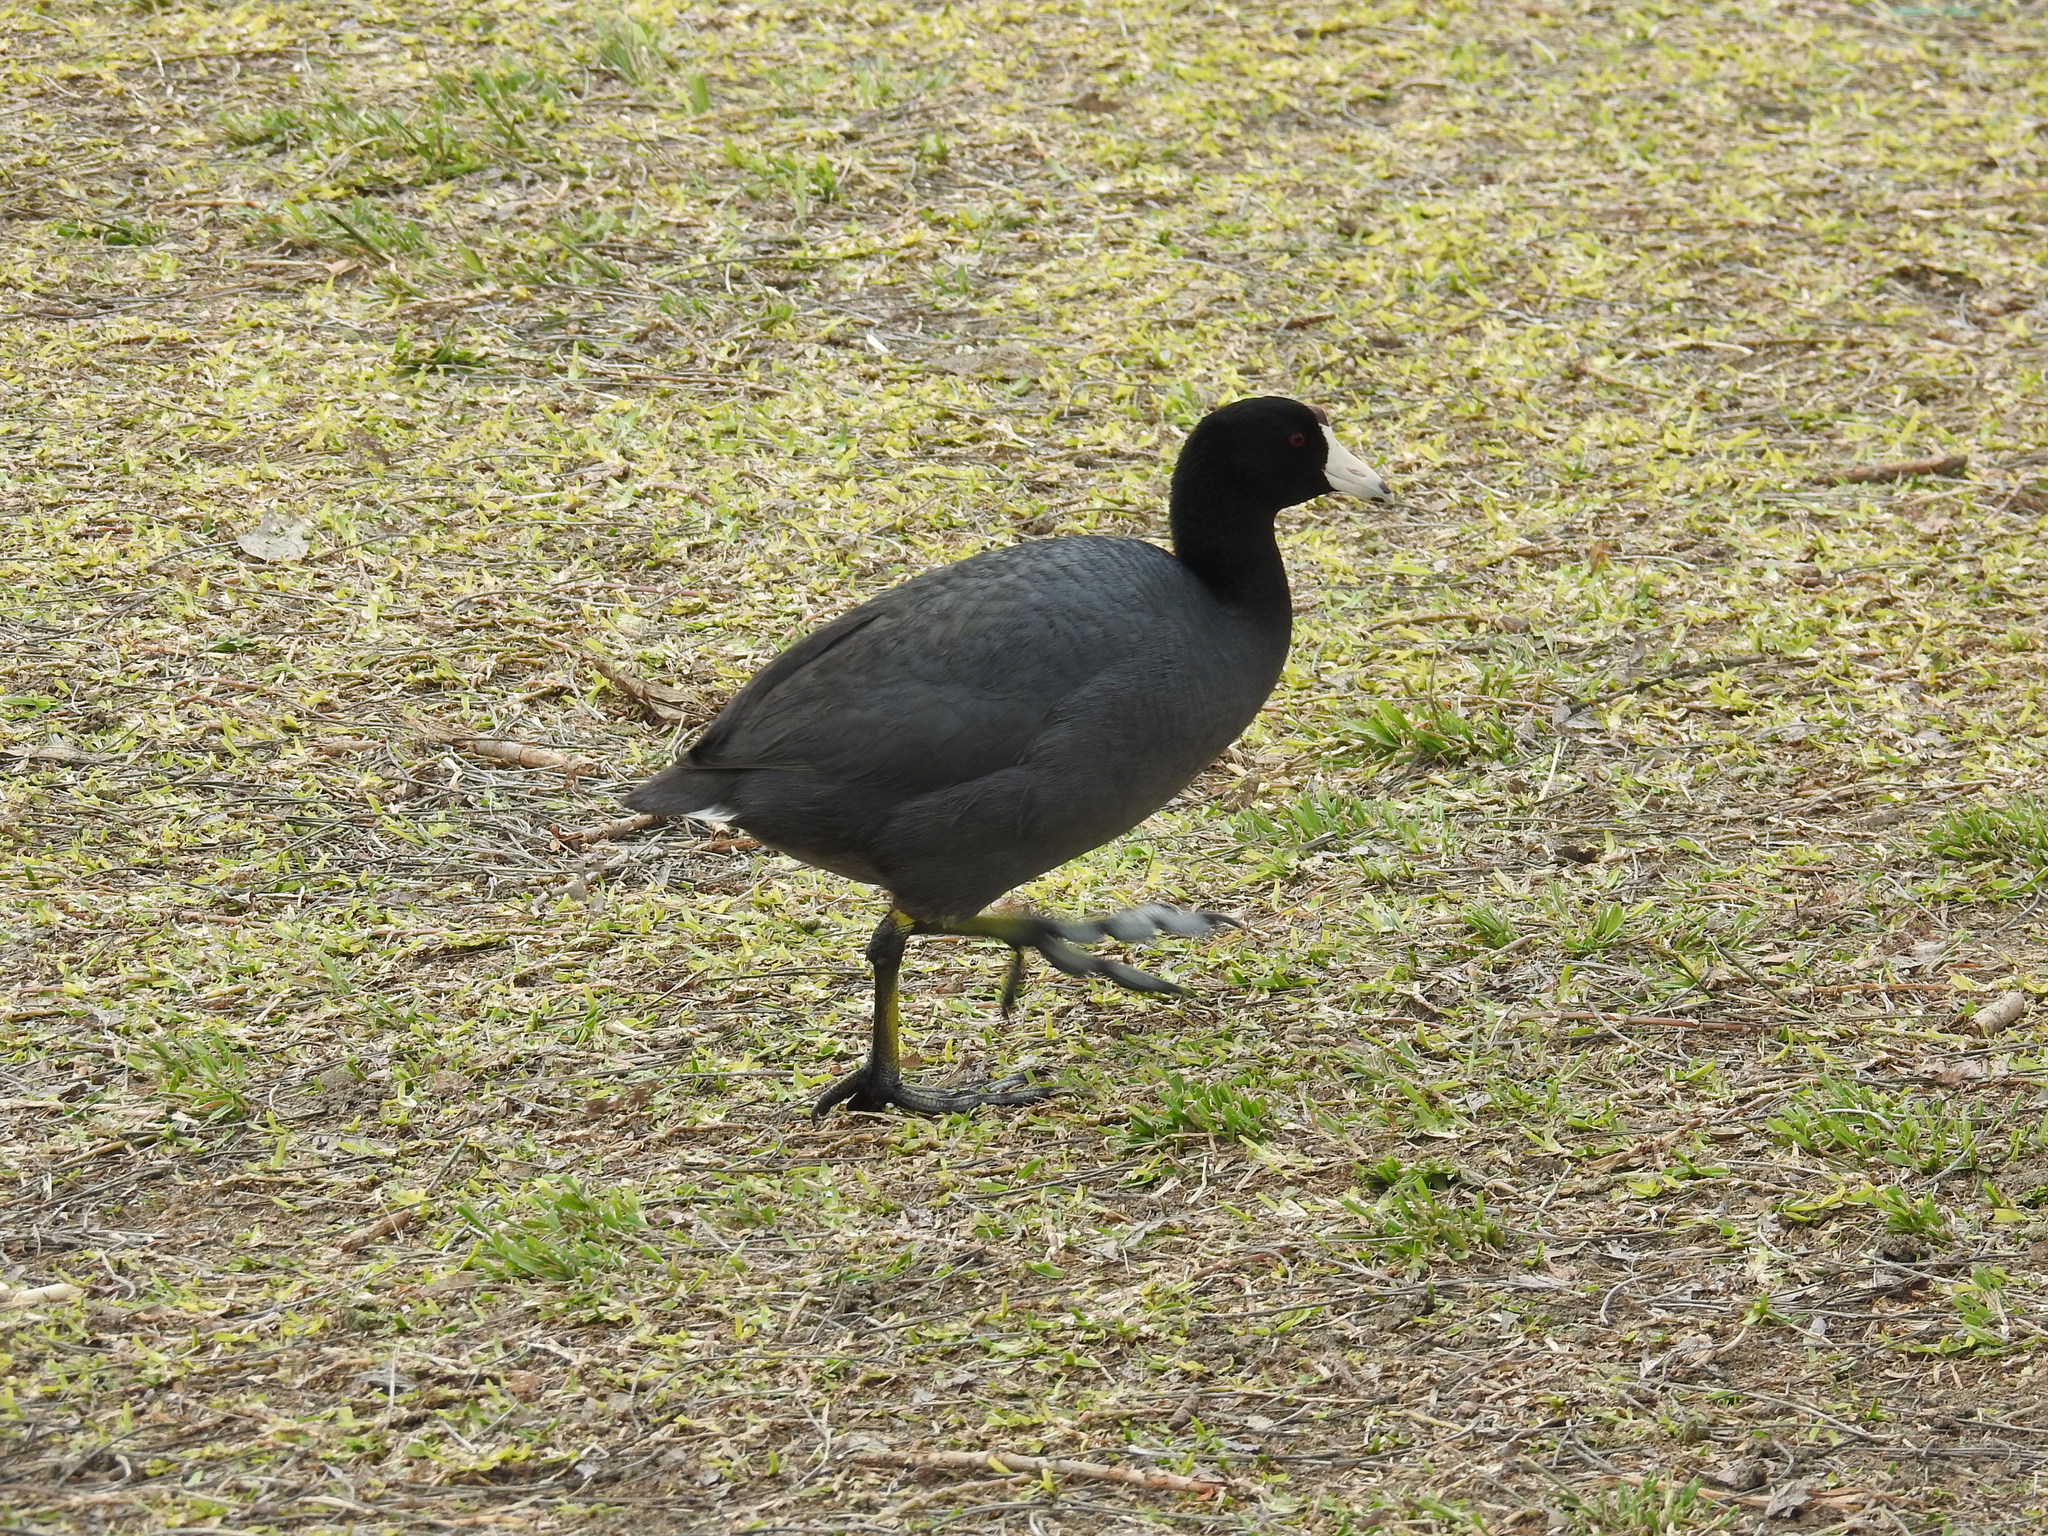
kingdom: Animalia
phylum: Chordata
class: Aves
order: Gruiformes
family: Rallidae
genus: Fulica
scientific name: Fulica americana
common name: American coot
